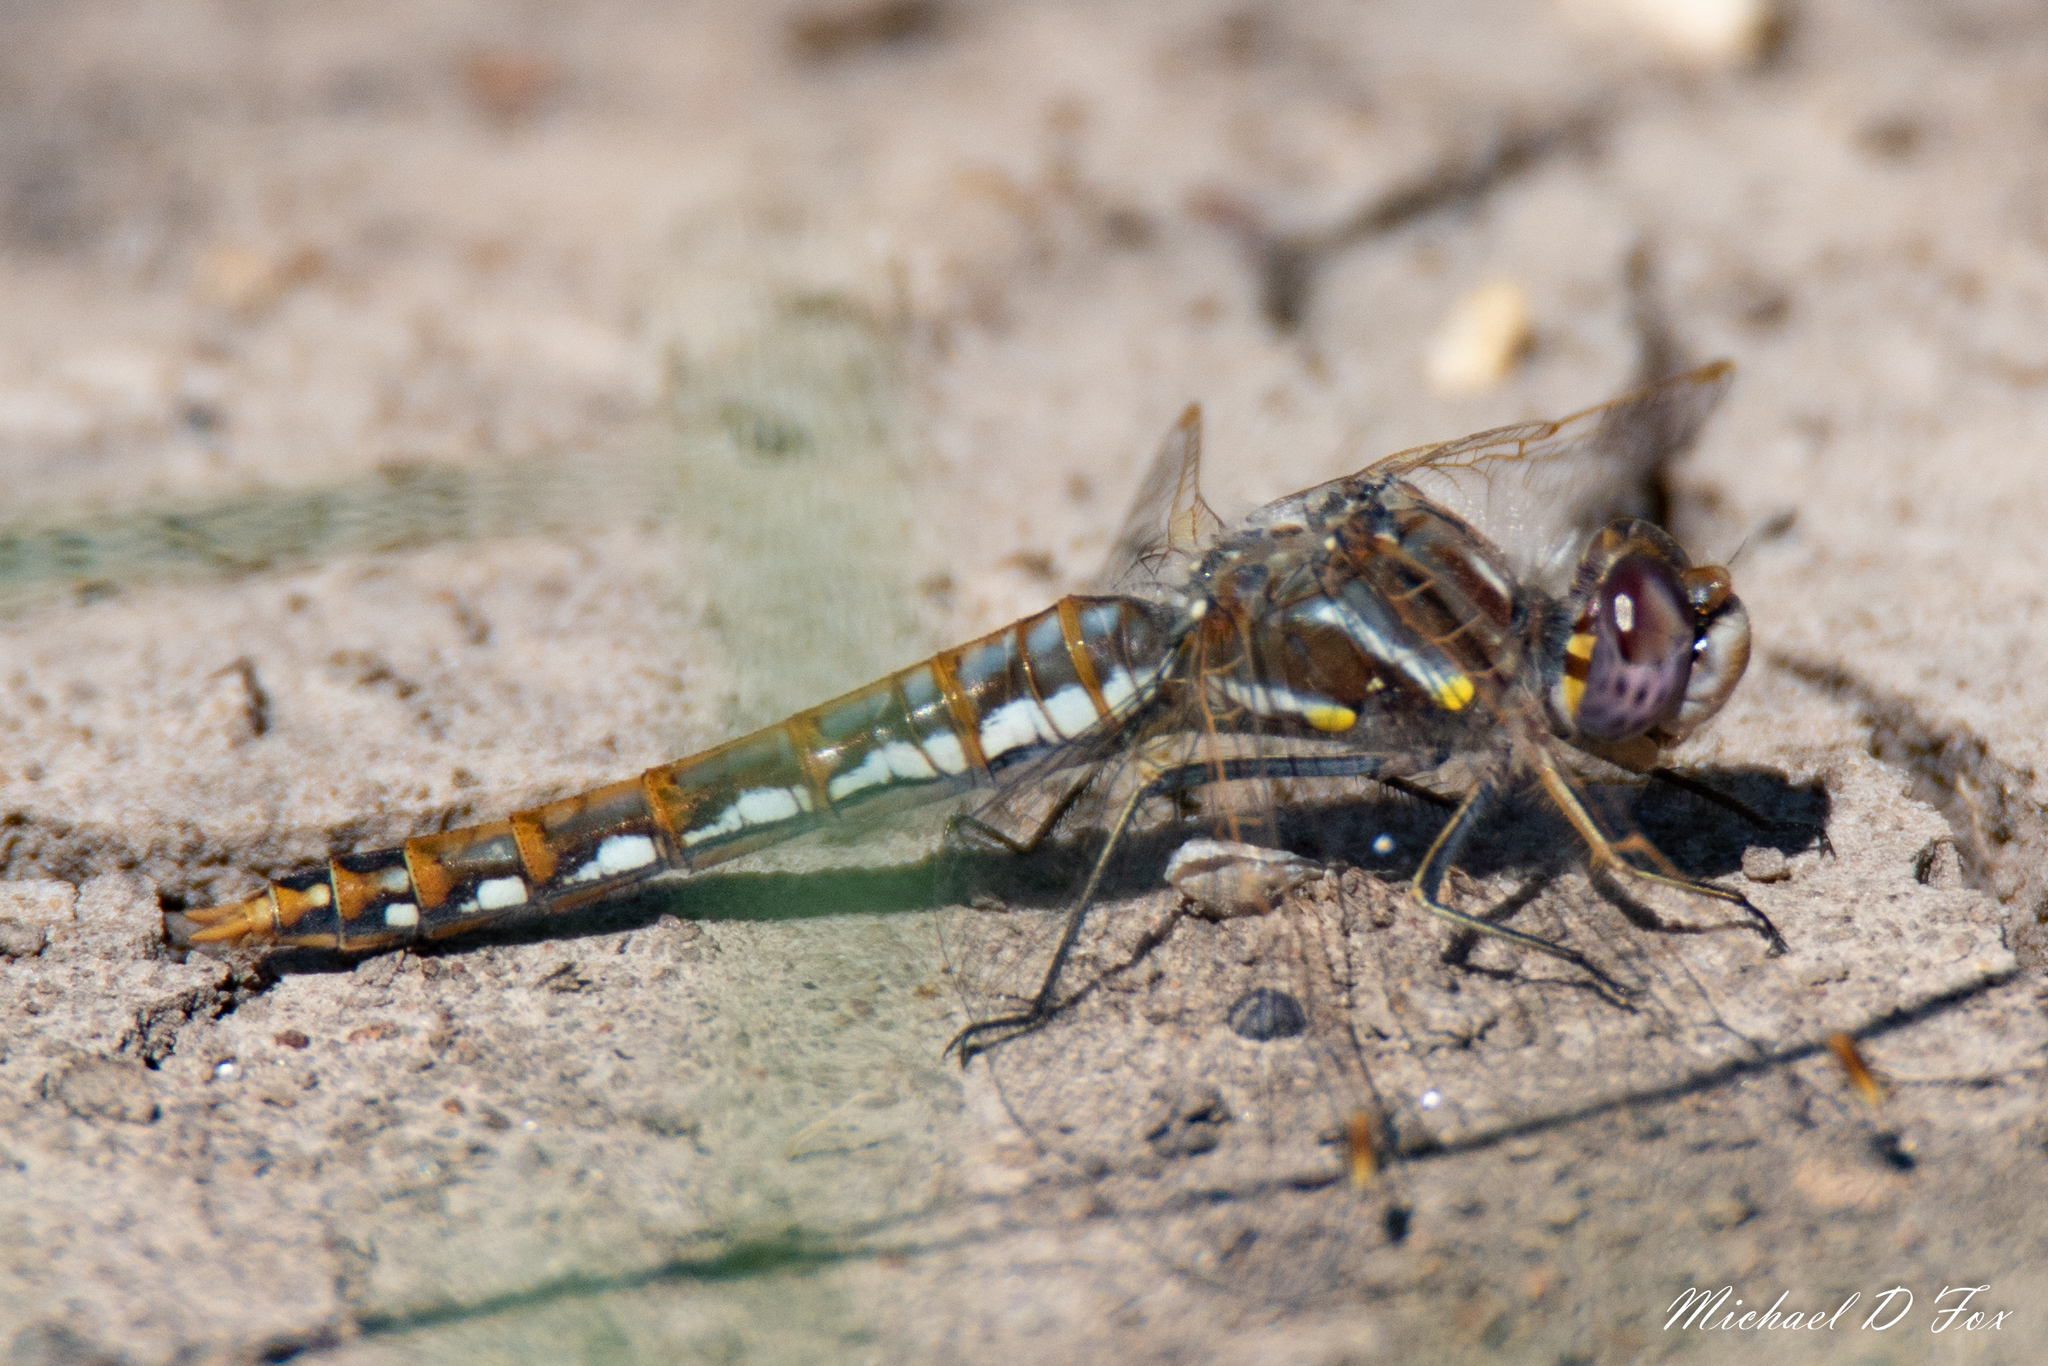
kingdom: Animalia
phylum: Arthropoda
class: Insecta
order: Odonata
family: Libellulidae
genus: Sympetrum
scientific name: Sympetrum corruptum
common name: Variegated meadowhawk
